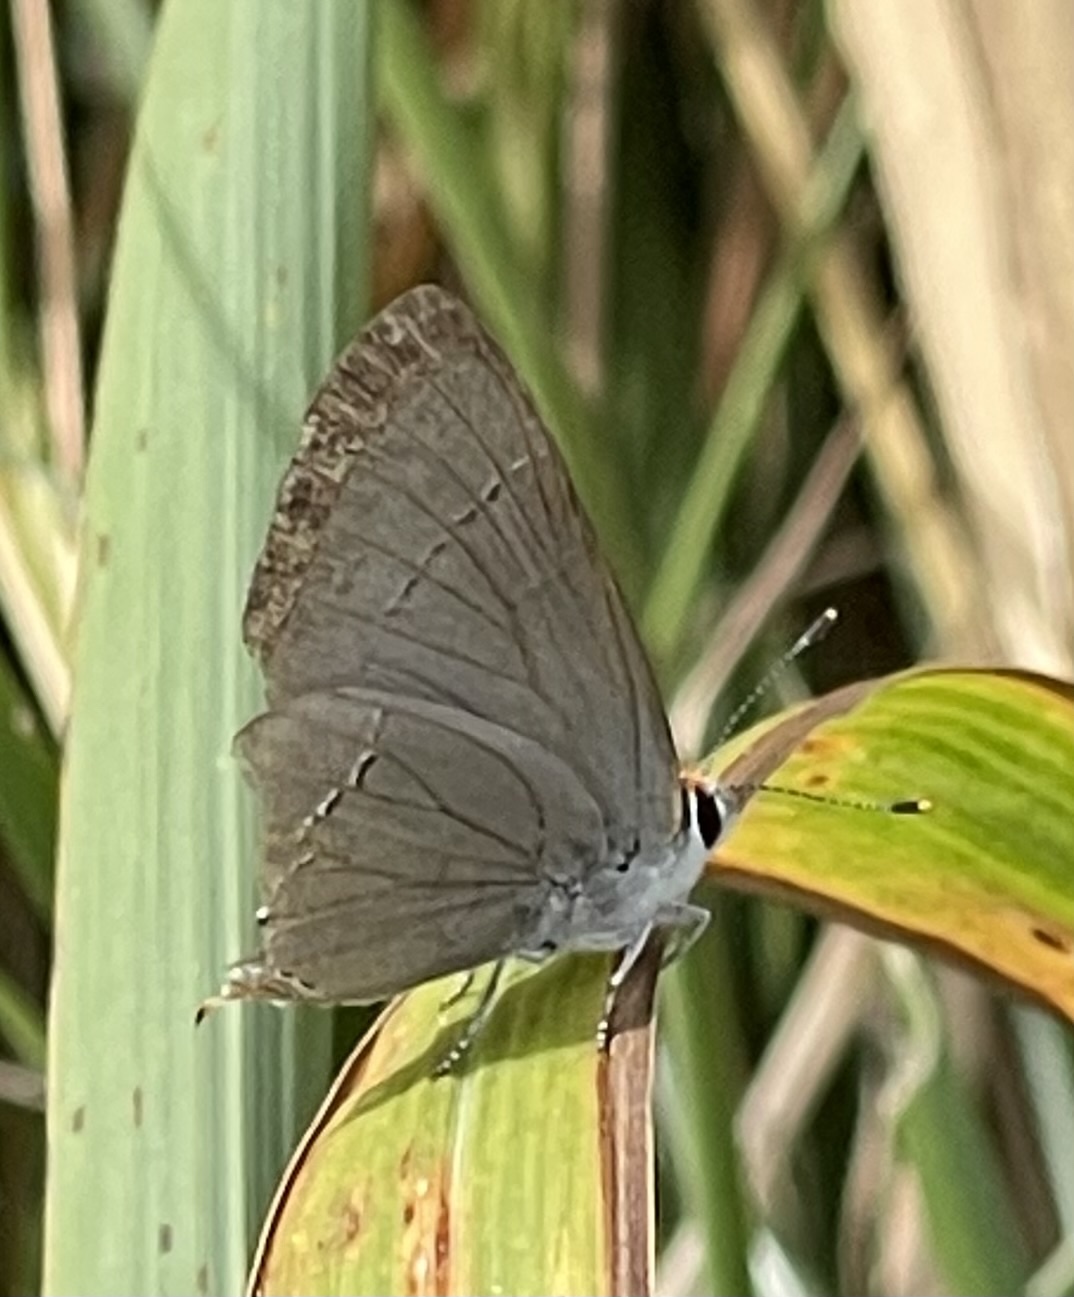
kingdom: Animalia
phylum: Arthropoda
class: Insecta
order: Lepidoptera
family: Lycaenidae
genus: Strymon
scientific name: Strymon melinus
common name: Gray hairstreak
